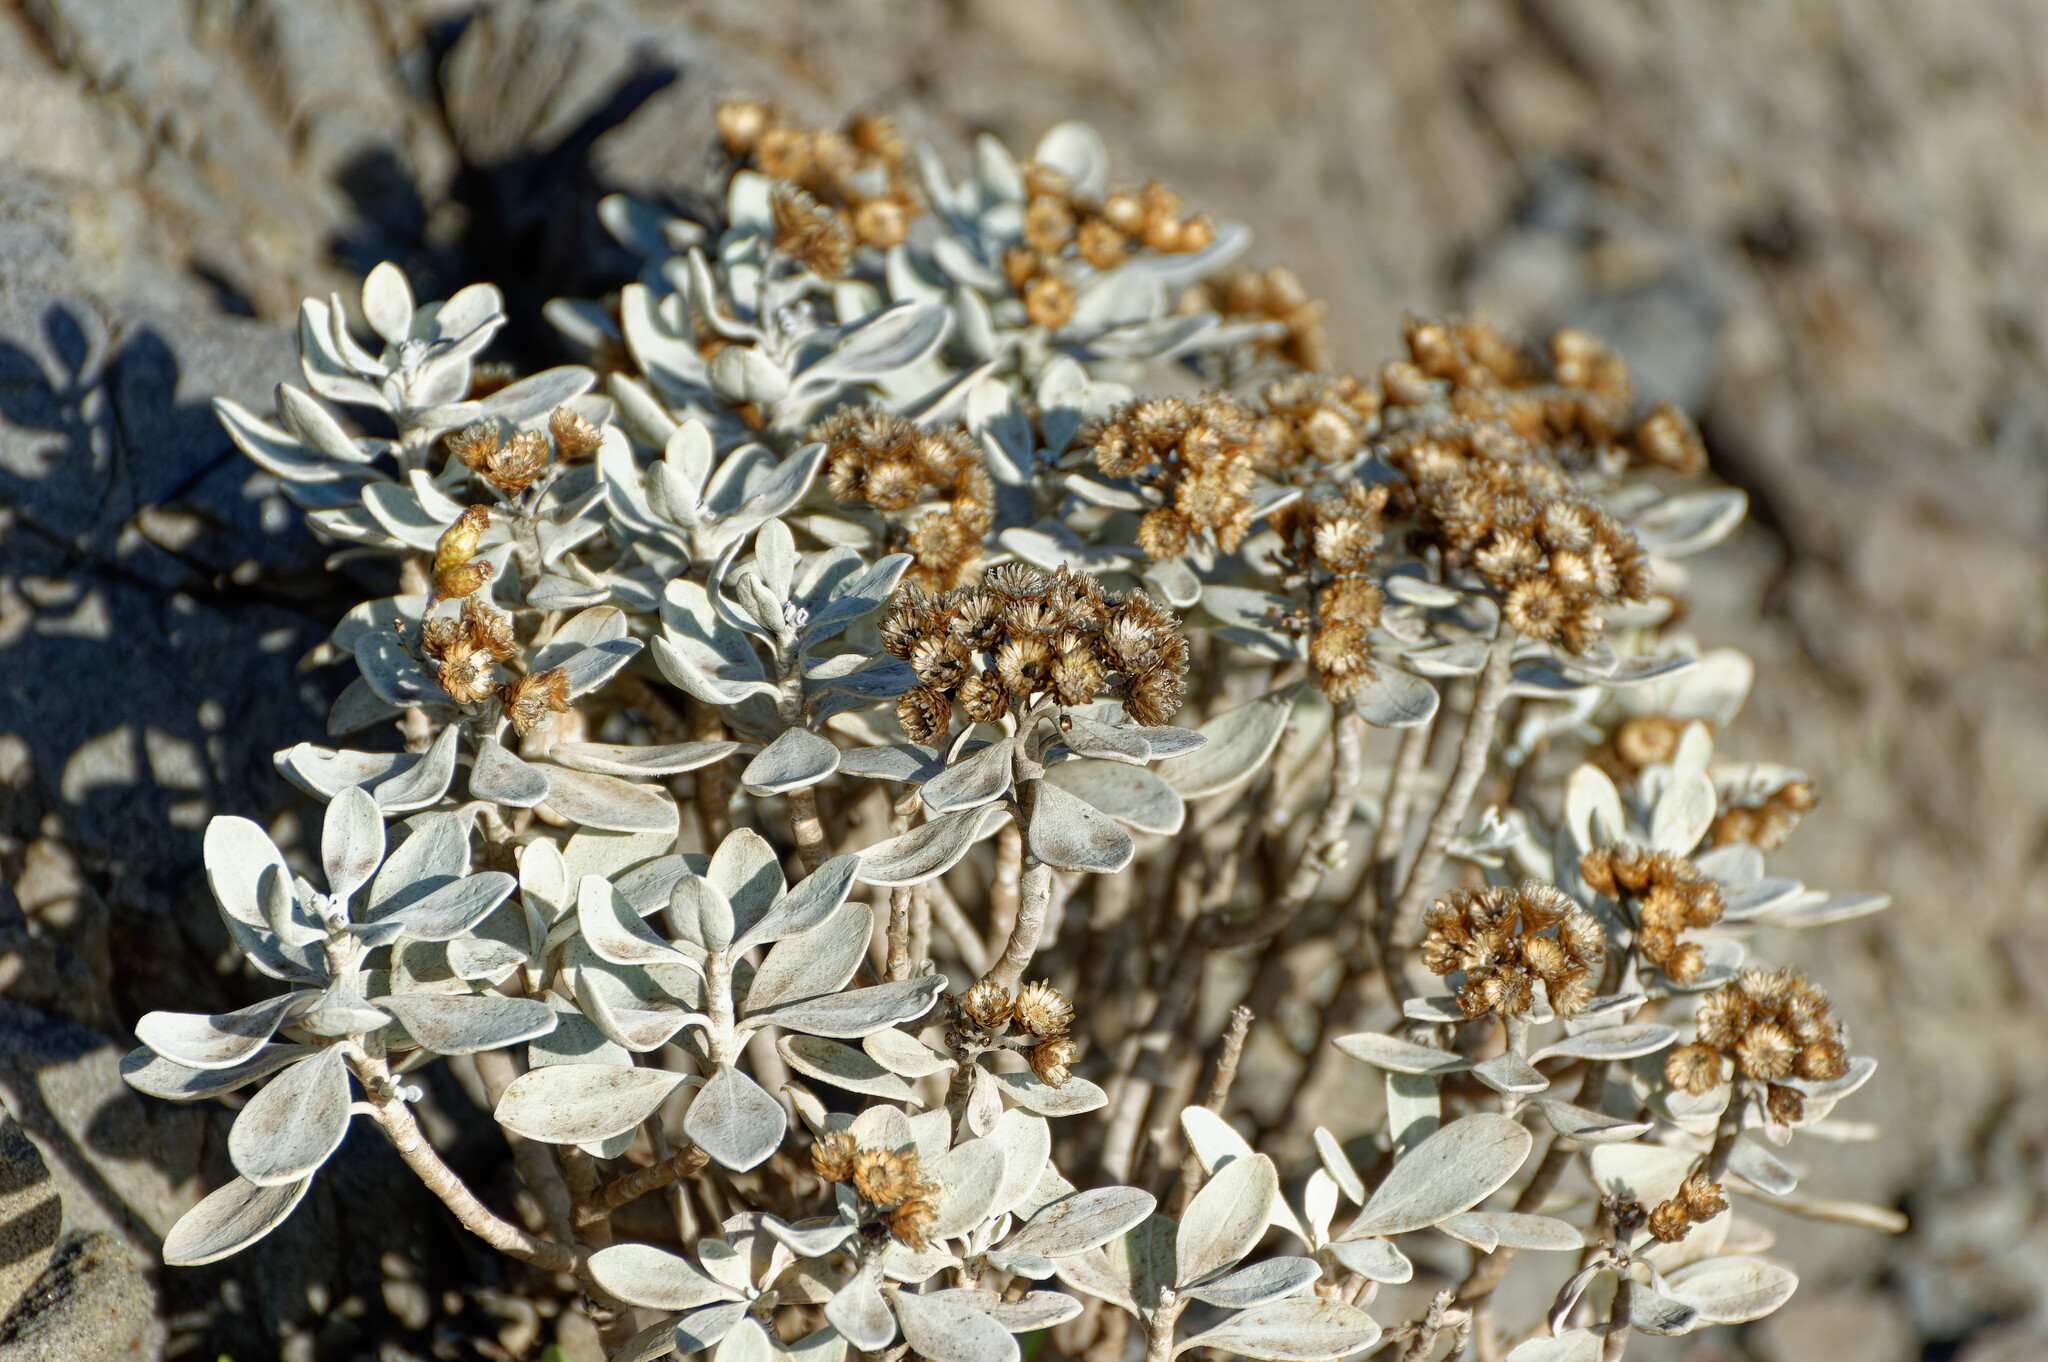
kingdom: Plantae
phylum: Tracheophyta
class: Magnoliopsida
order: Asterales
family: Asteraceae
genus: Helichrysum
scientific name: Helichrysum obconicum
